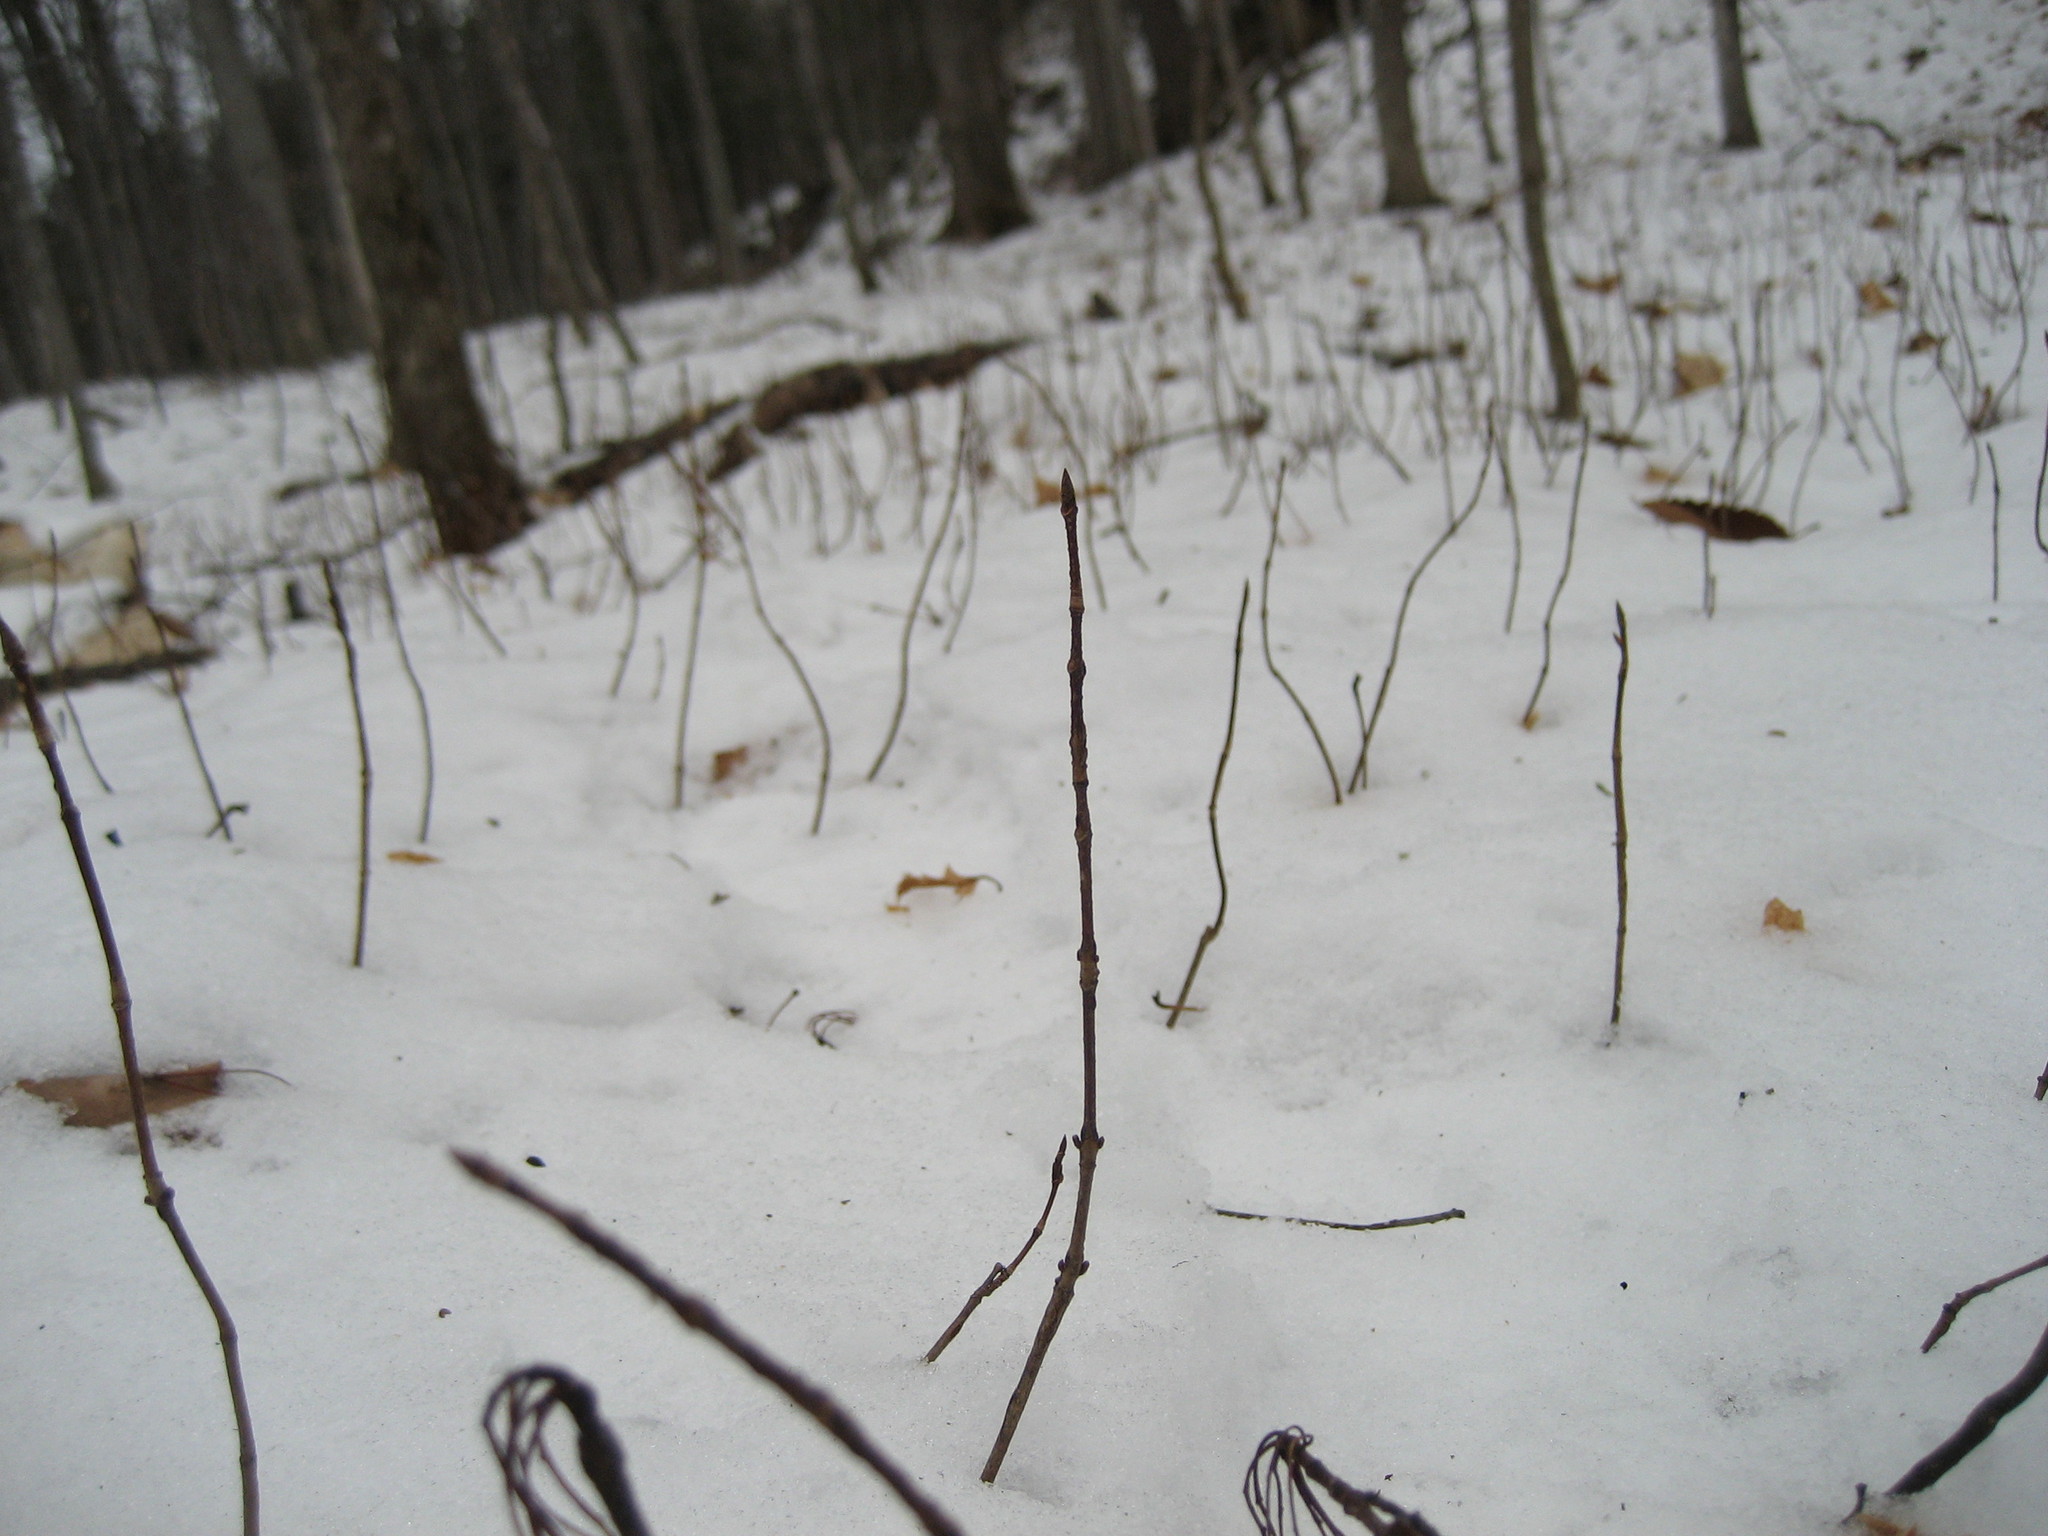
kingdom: Plantae
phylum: Tracheophyta
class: Magnoliopsida
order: Sapindales
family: Sapindaceae
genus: Acer
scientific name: Acer saccharum
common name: Sugar maple
